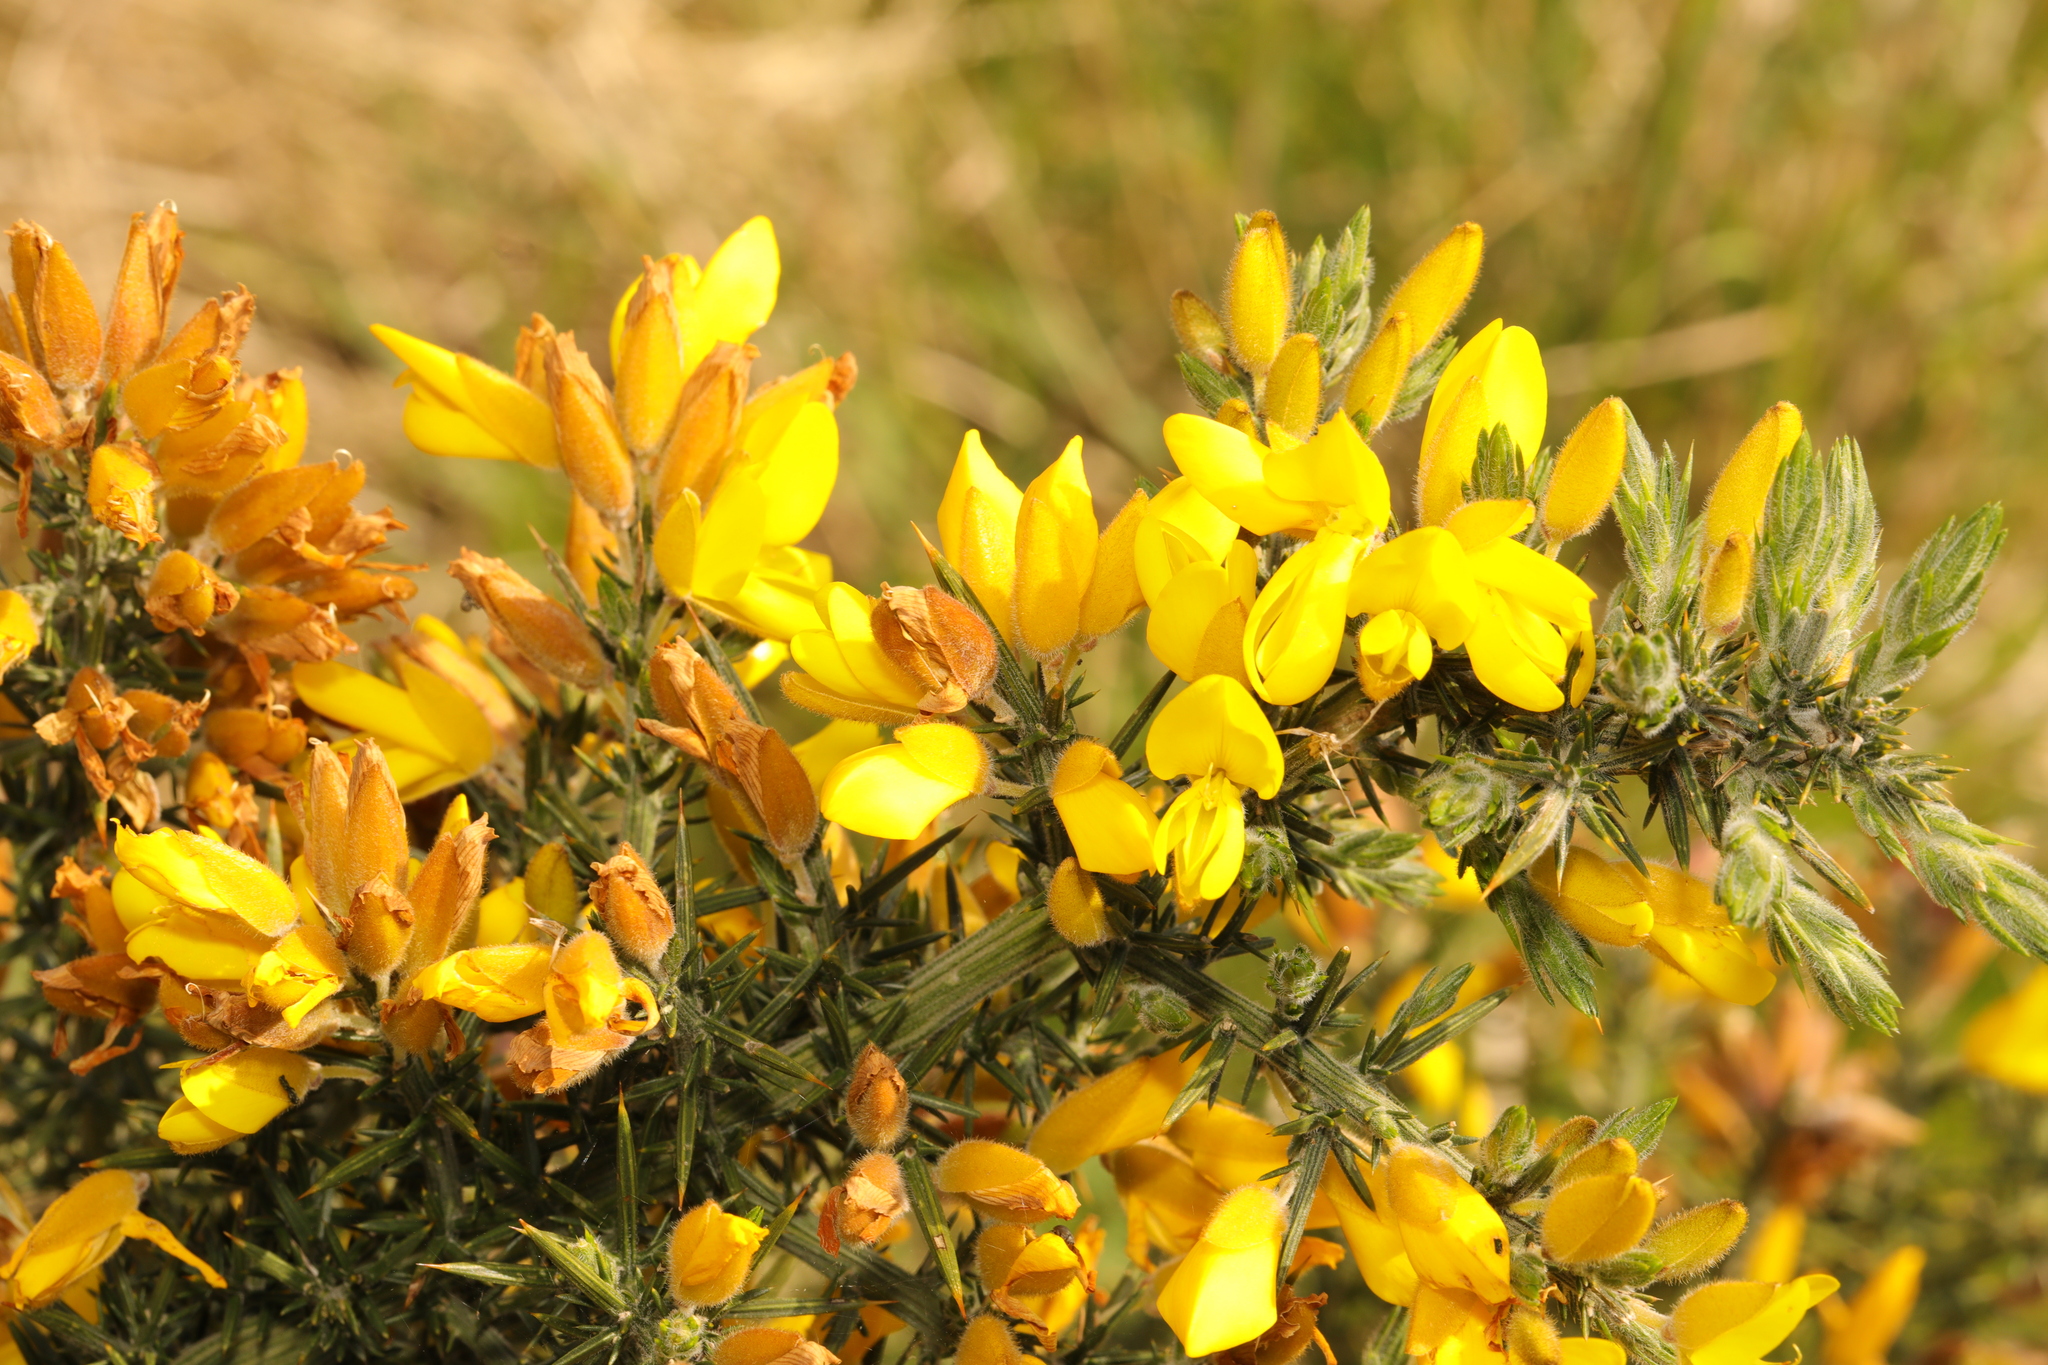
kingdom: Plantae
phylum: Tracheophyta
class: Magnoliopsida
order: Fabales
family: Fabaceae
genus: Ulex
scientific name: Ulex europaeus
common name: Common gorse
